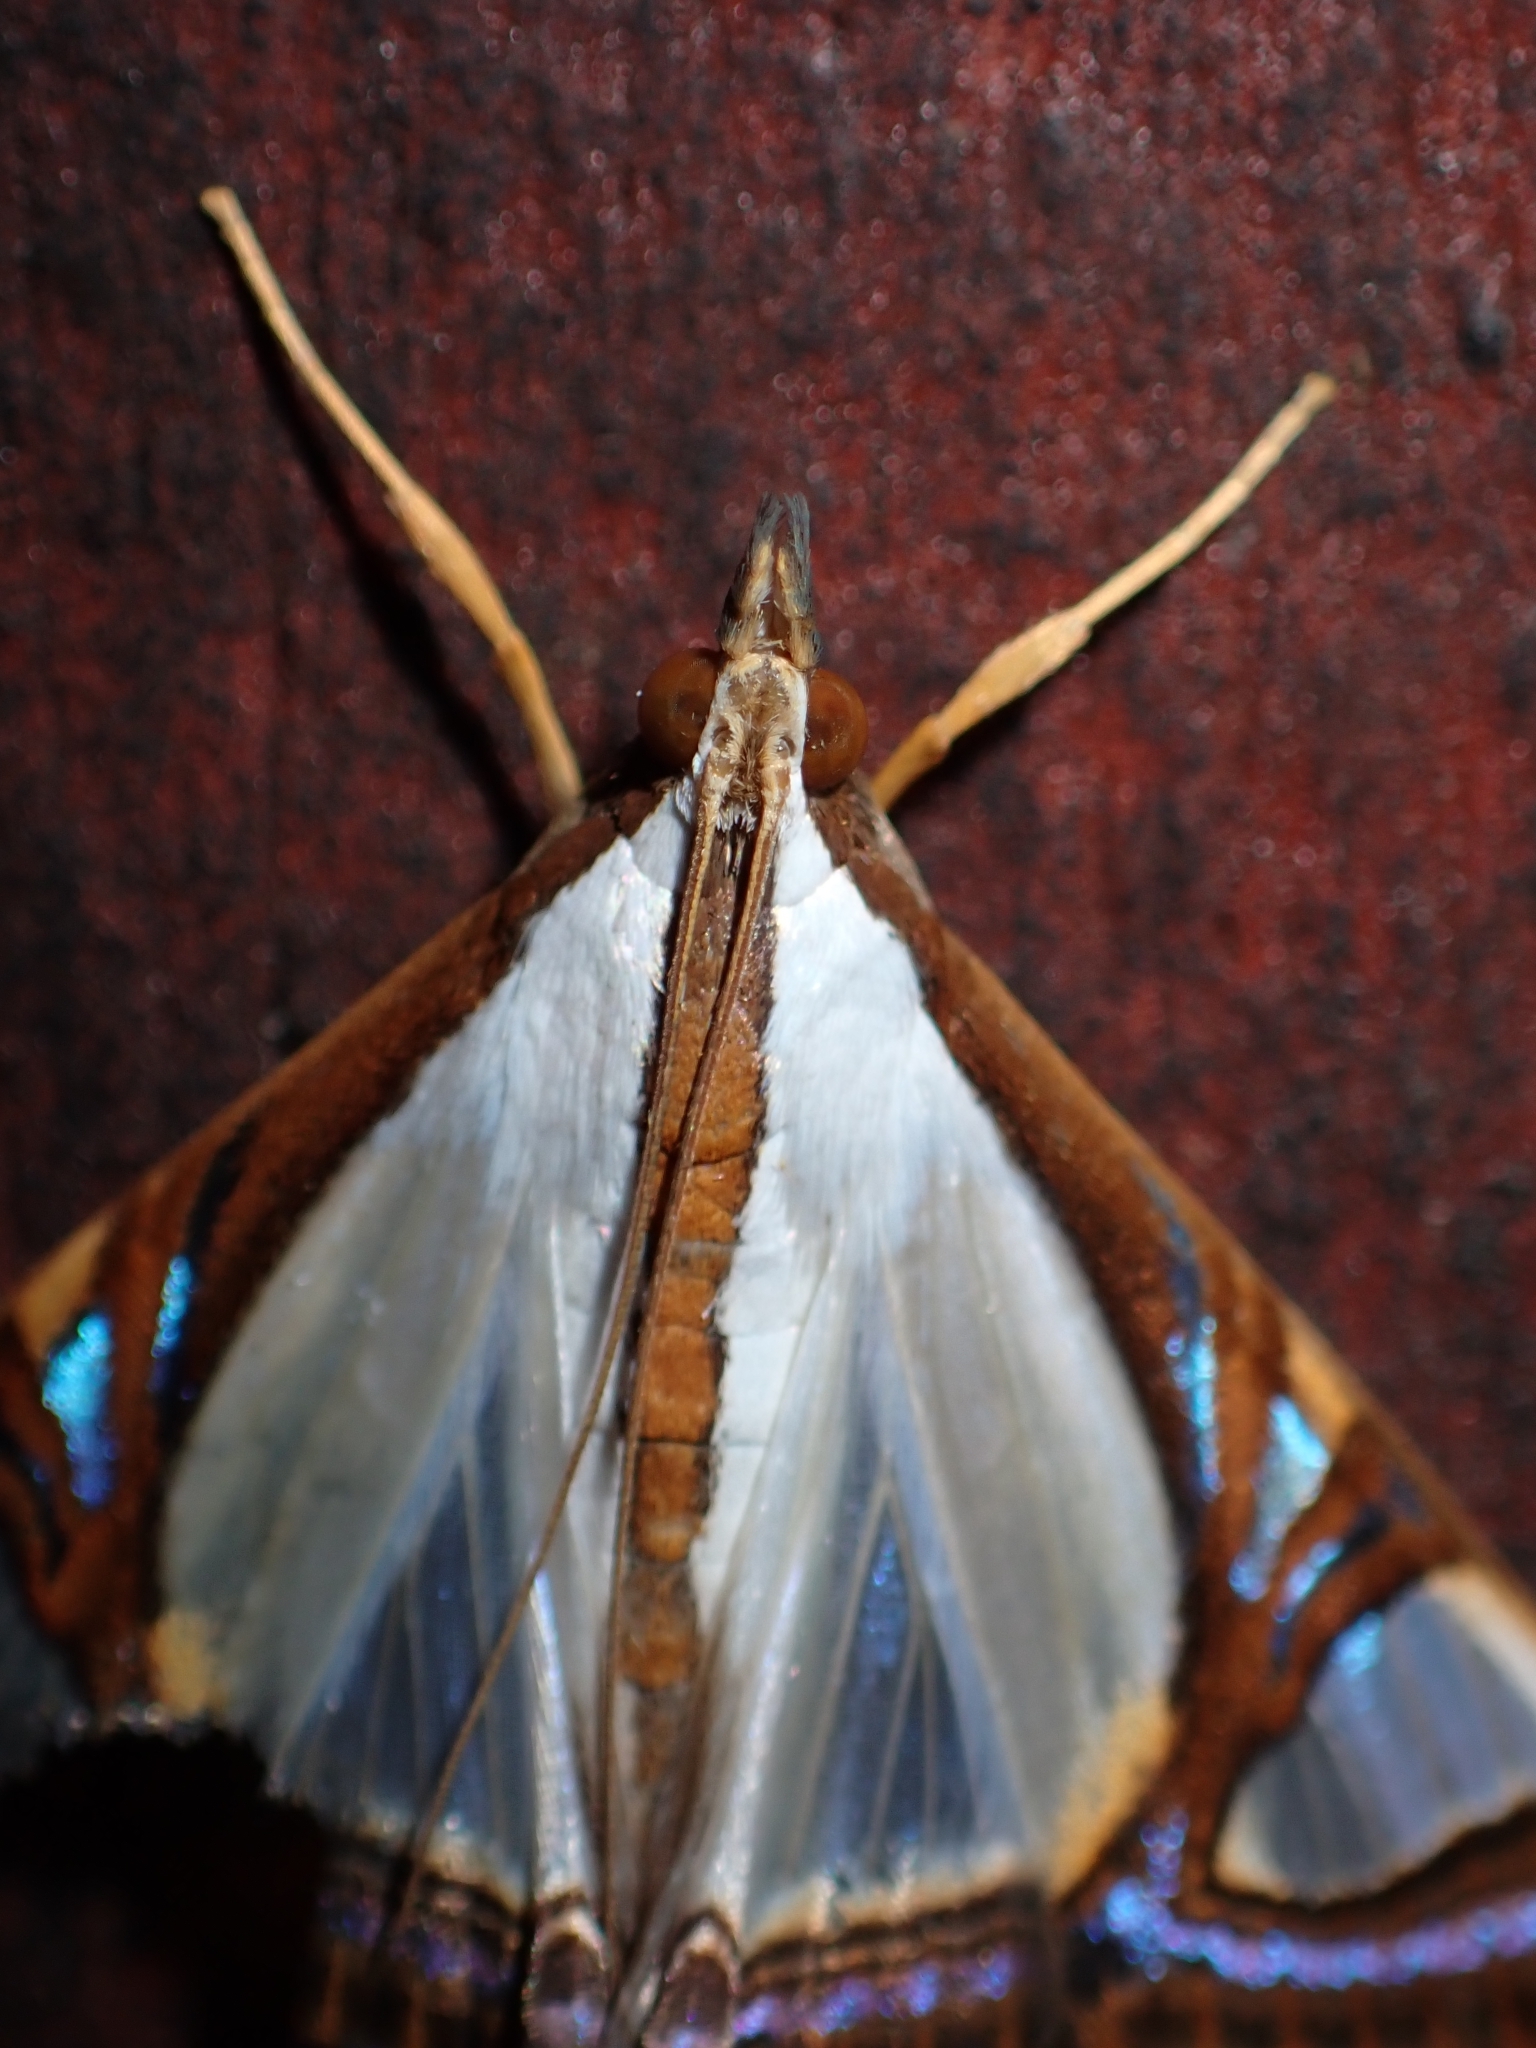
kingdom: Animalia
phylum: Arthropoda
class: Insecta
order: Lepidoptera
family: Crambidae
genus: Agrioglypta
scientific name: Agrioglypta eurytusalis
